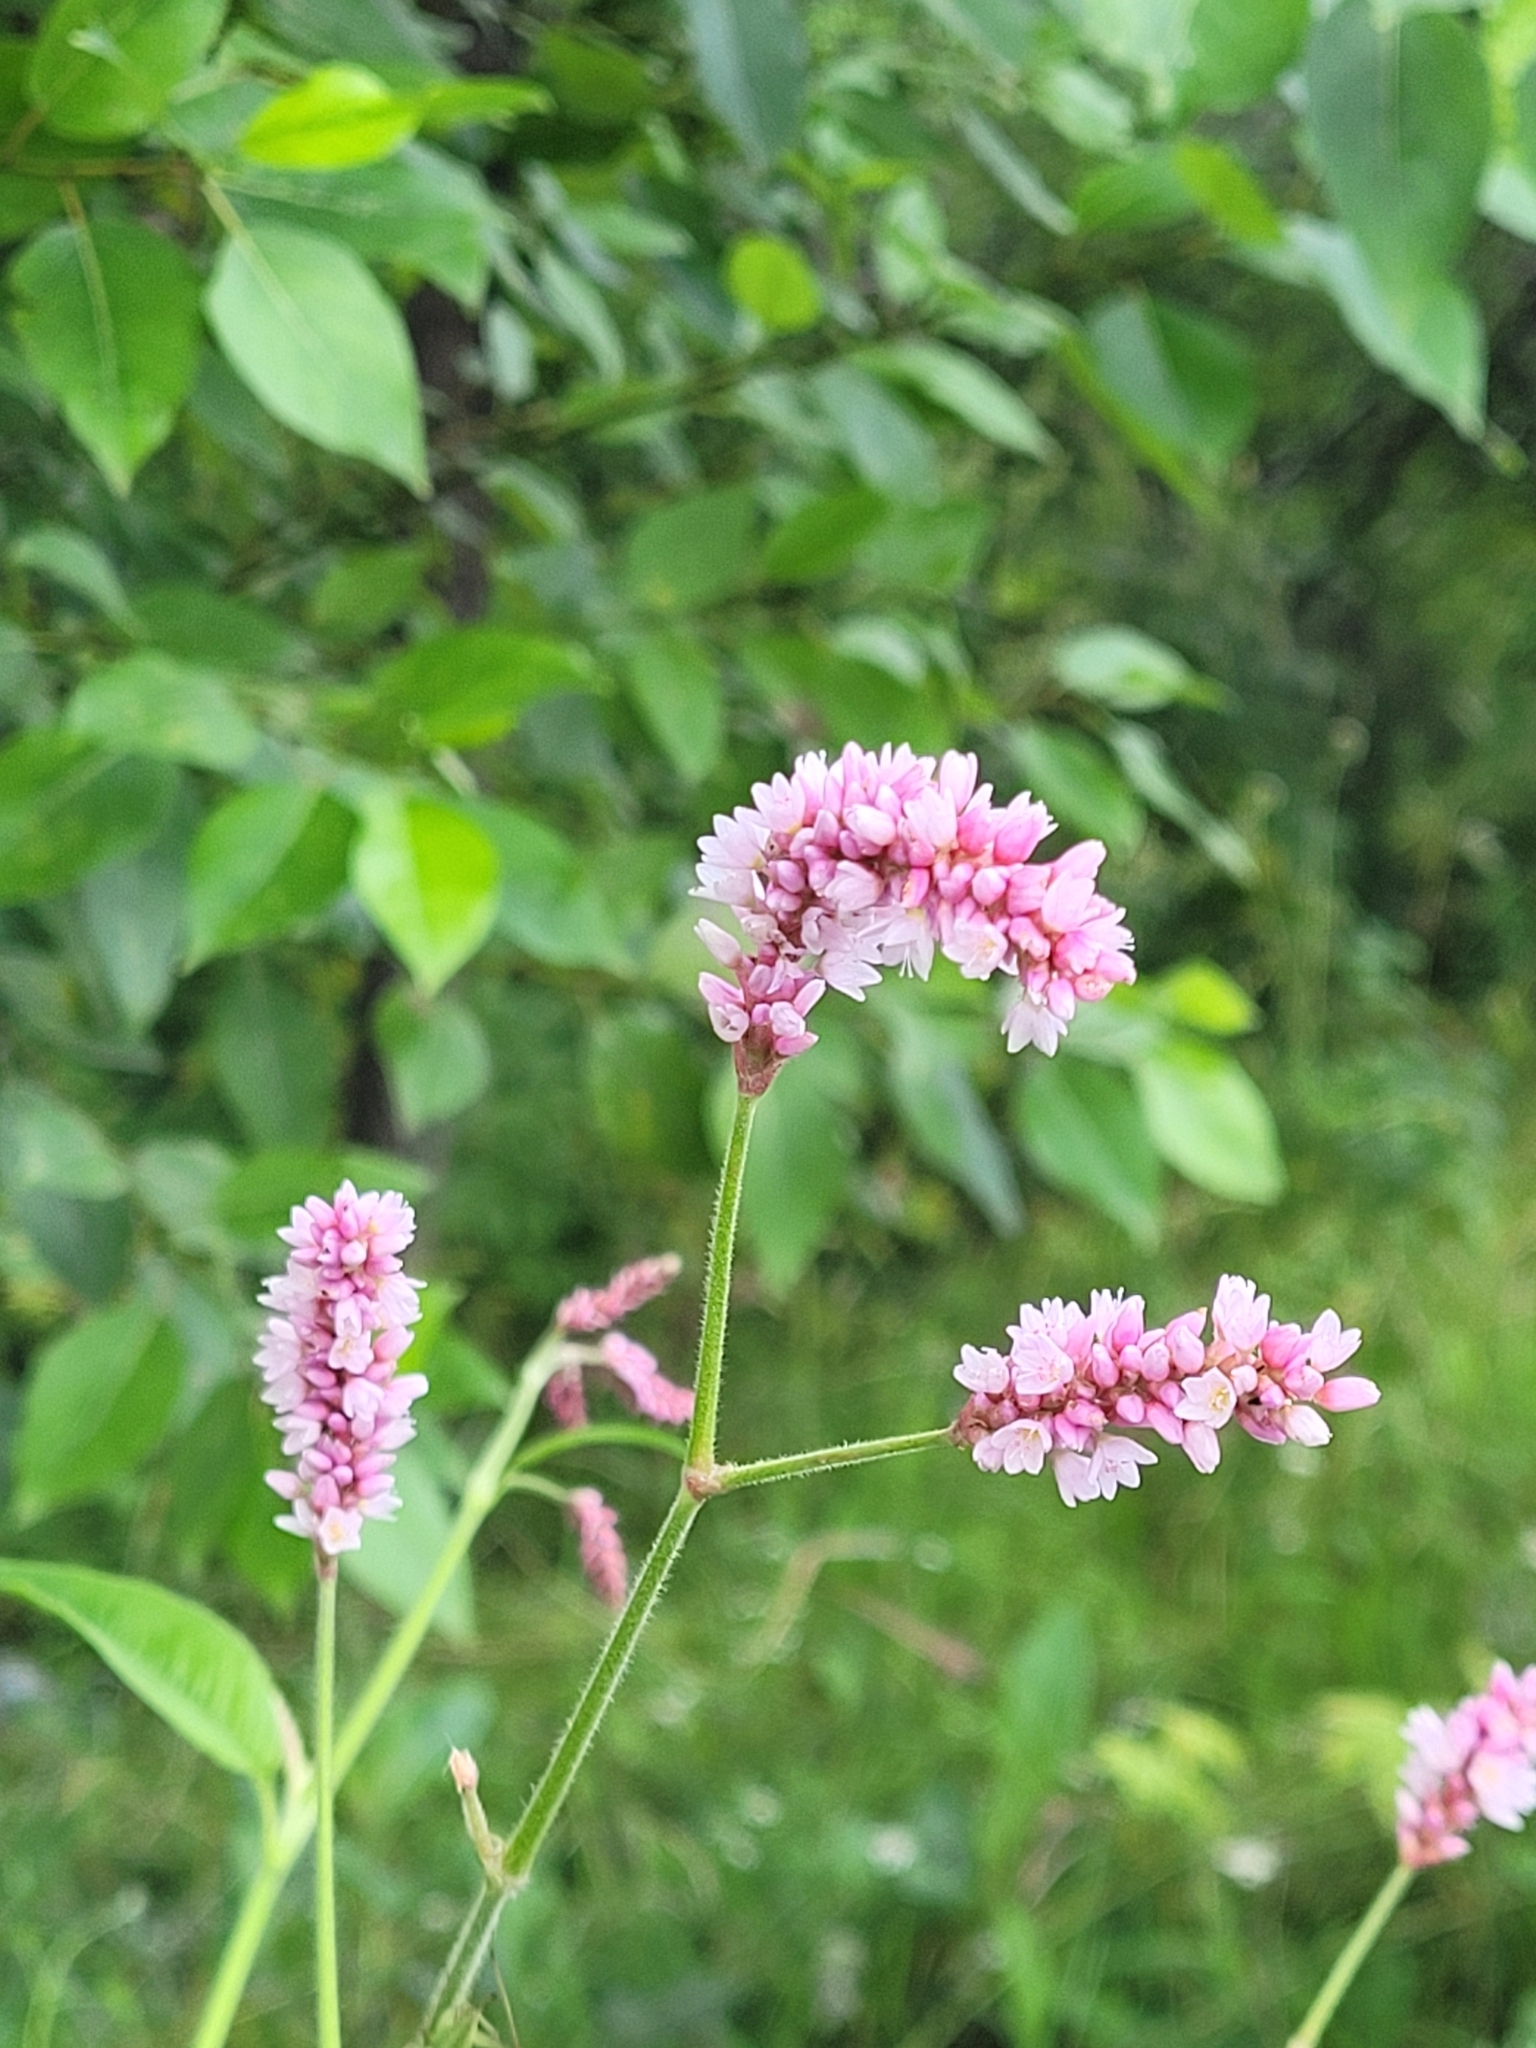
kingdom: Plantae
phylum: Tracheophyta
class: Magnoliopsida
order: Caryophyllales
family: Polygonaceae
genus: Persicaria
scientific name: Persicaria orientalis
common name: Kiss-me-over-the-garden-gate
